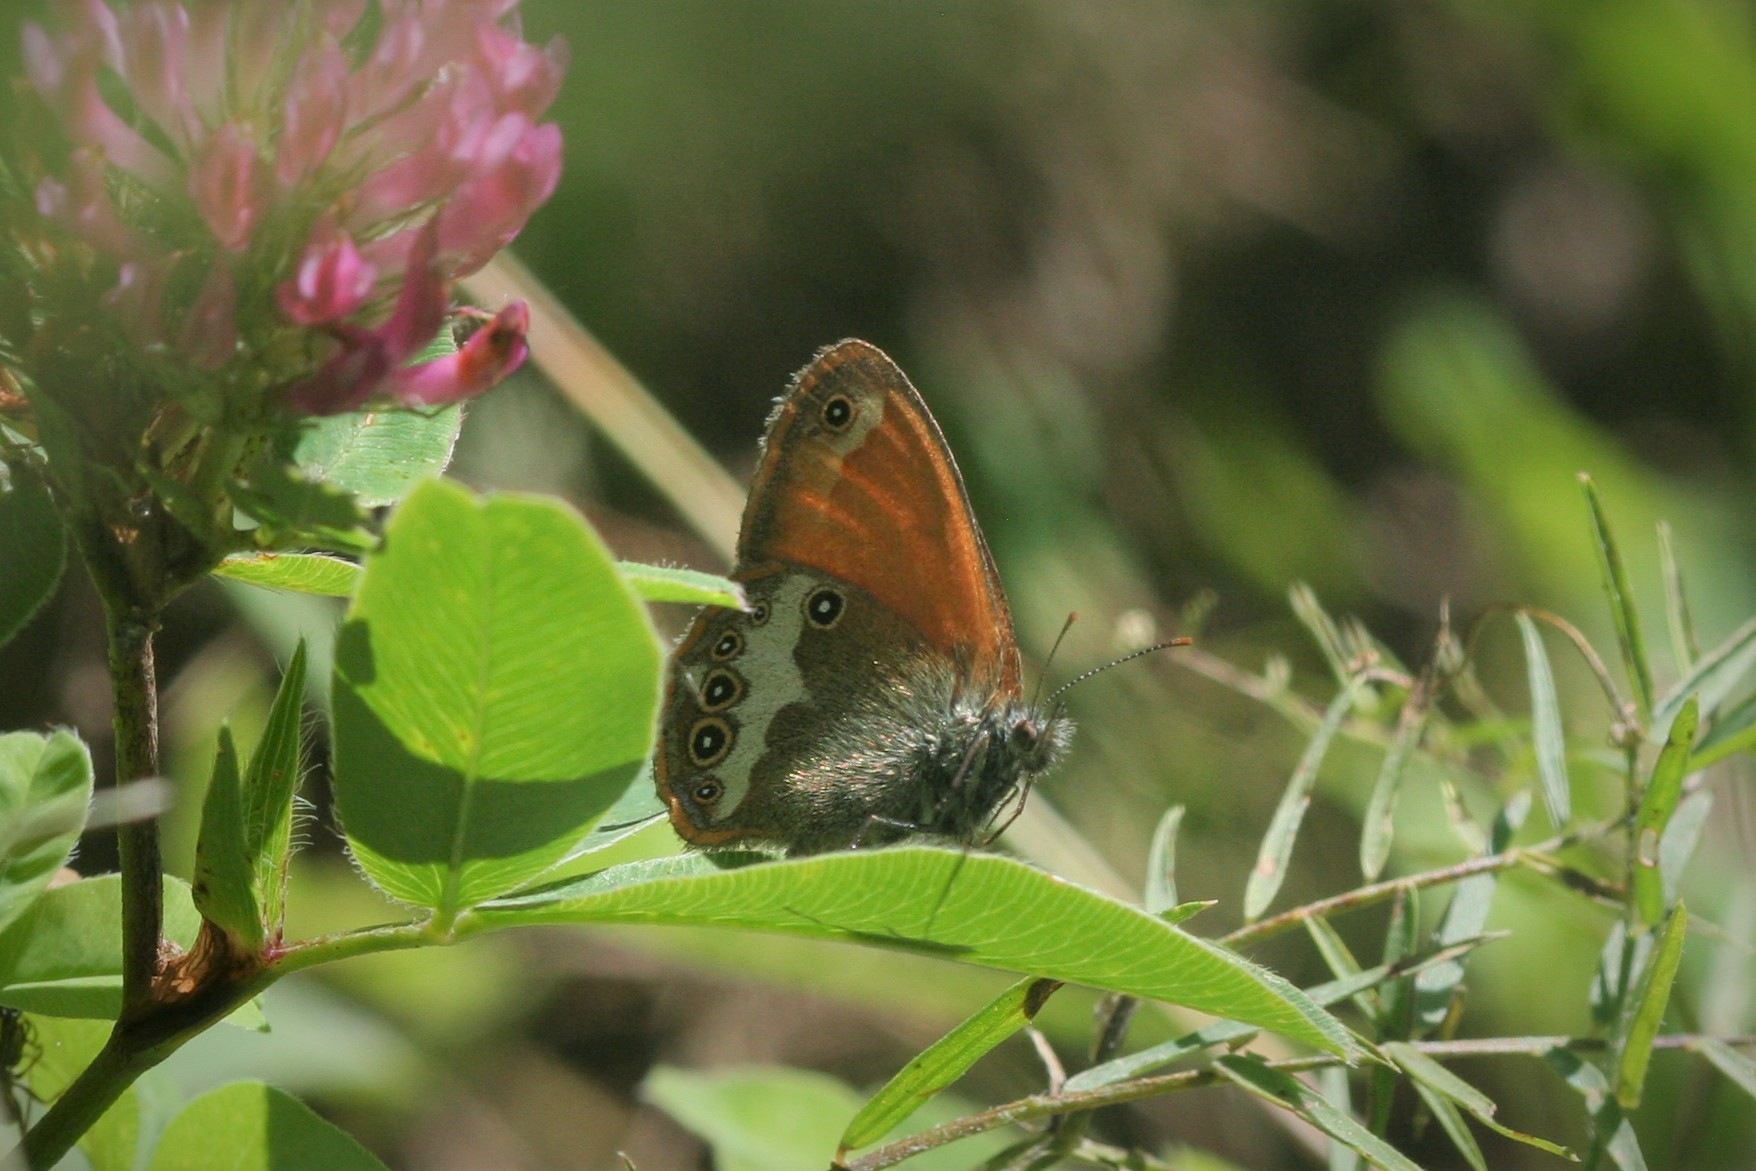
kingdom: Animalia
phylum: Arthropoda
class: Insecta
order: Lepidoptera
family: Nymphalidae
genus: Coenonympha
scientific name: Coenonympha arcania
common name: Pearly heath
